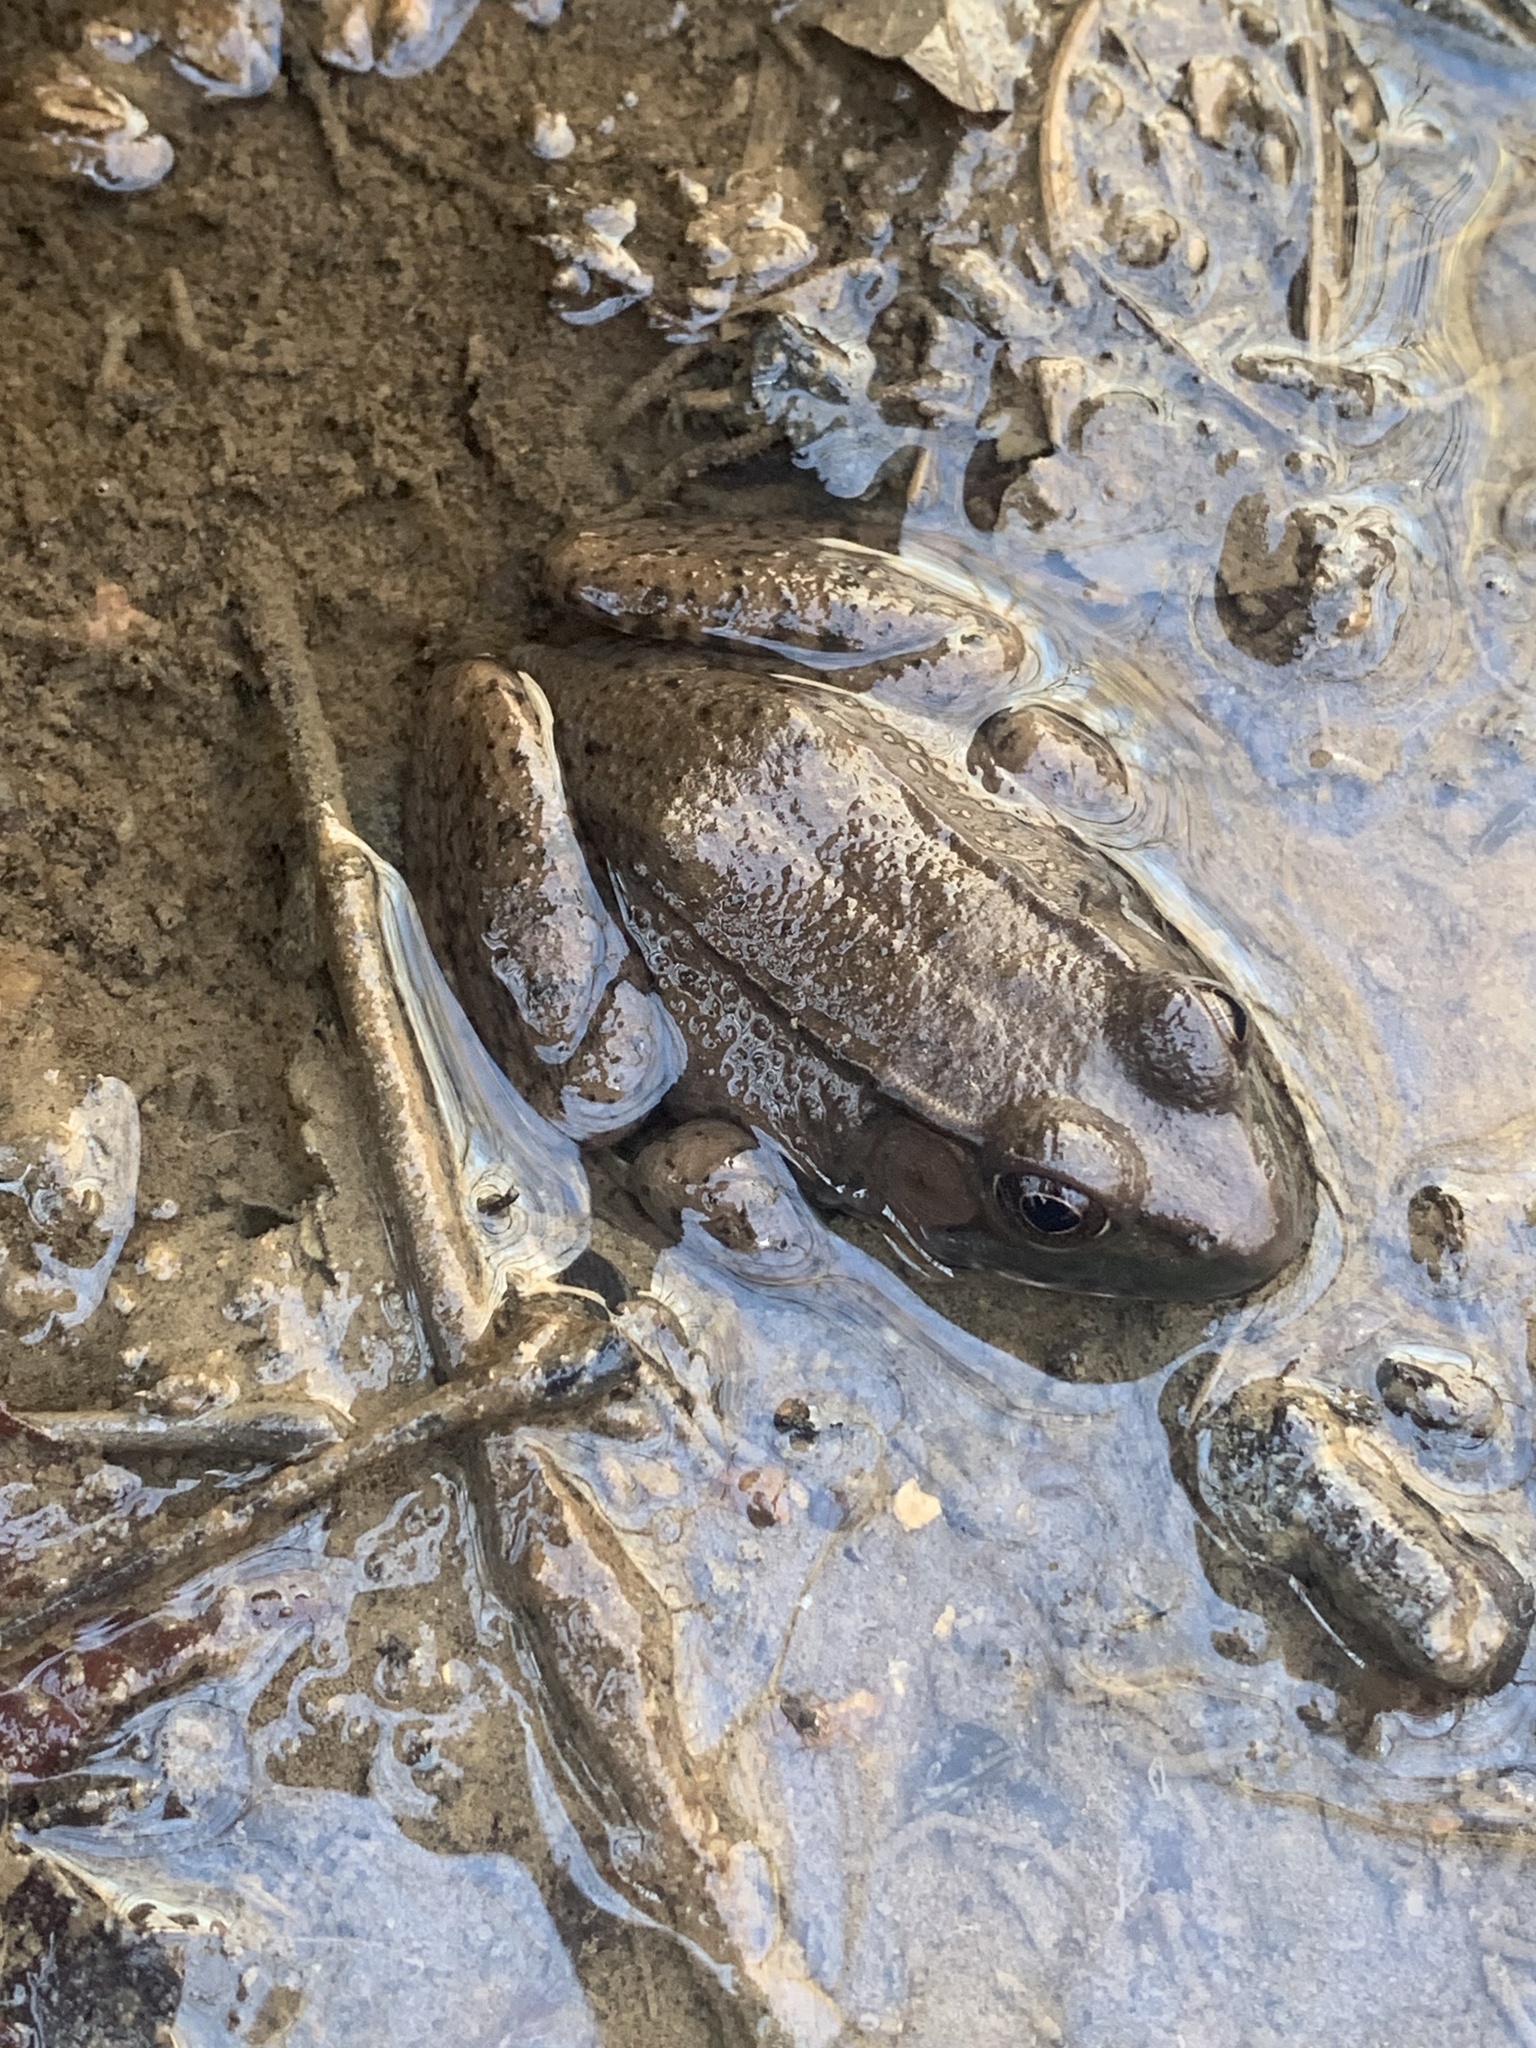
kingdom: Animalia
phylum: Chordata
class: Amphibia
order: Anura
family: Ranidae
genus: Lithobates
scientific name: Lithobates clamitans
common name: Green frog
